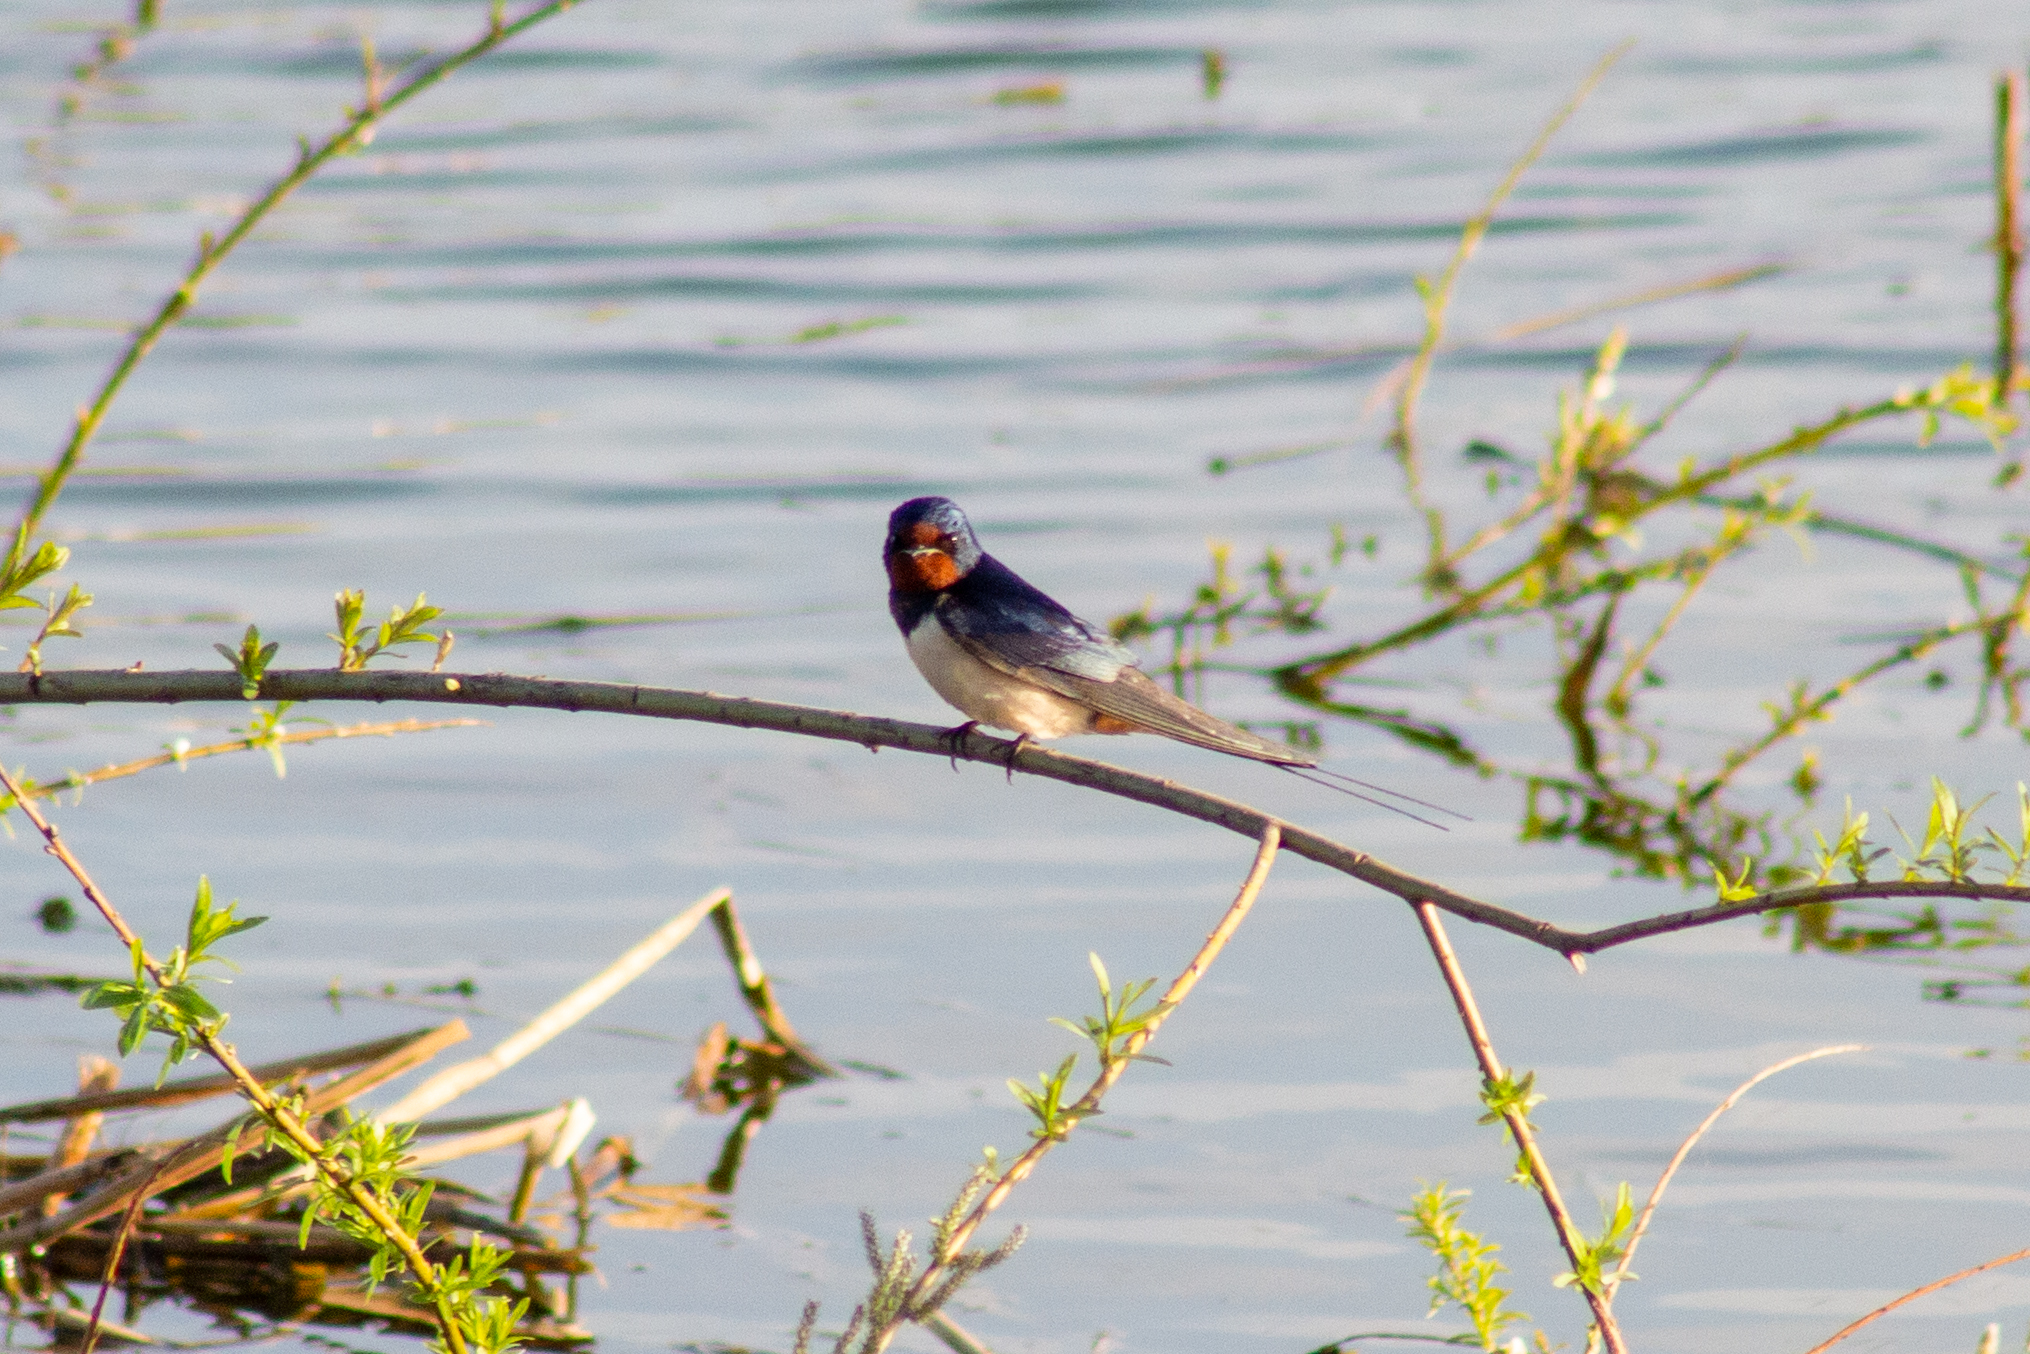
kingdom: Animalia
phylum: Chordata
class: Aves
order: Passeriformes
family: Hirundinidae
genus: Hirundo
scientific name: Hirundo rustica
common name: Barn swallow
